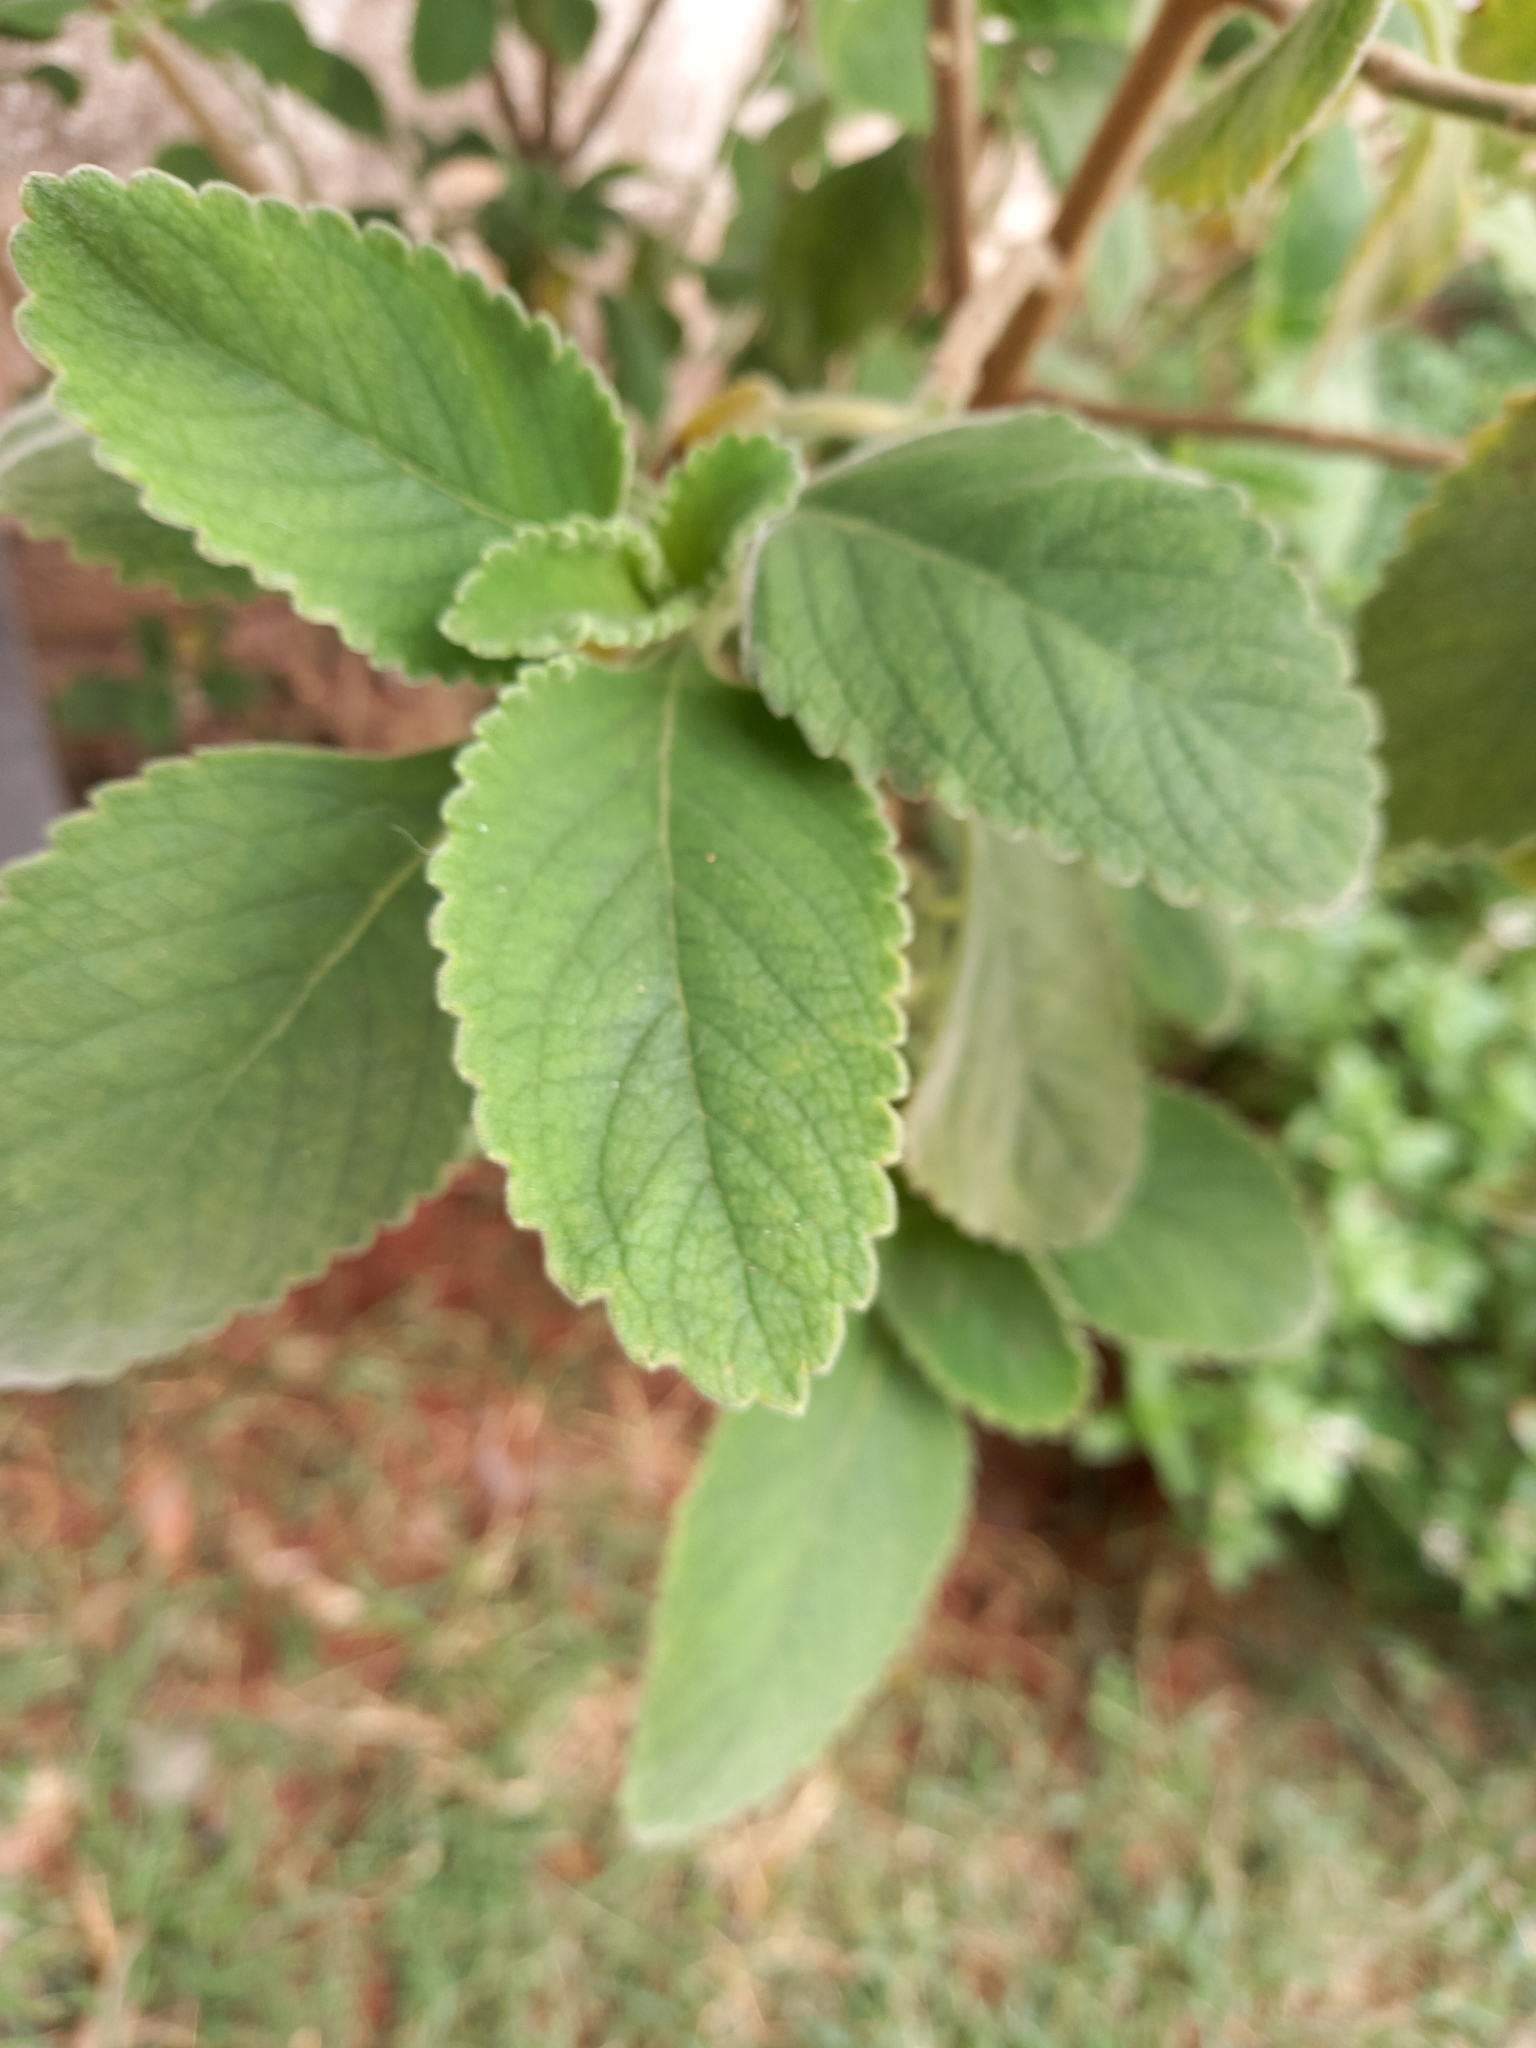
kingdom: Plantae
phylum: Tracheophyta
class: Magnoliopsida
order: Lamiales
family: Lamiaceae
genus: Coleus
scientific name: Coleus amboinicus
